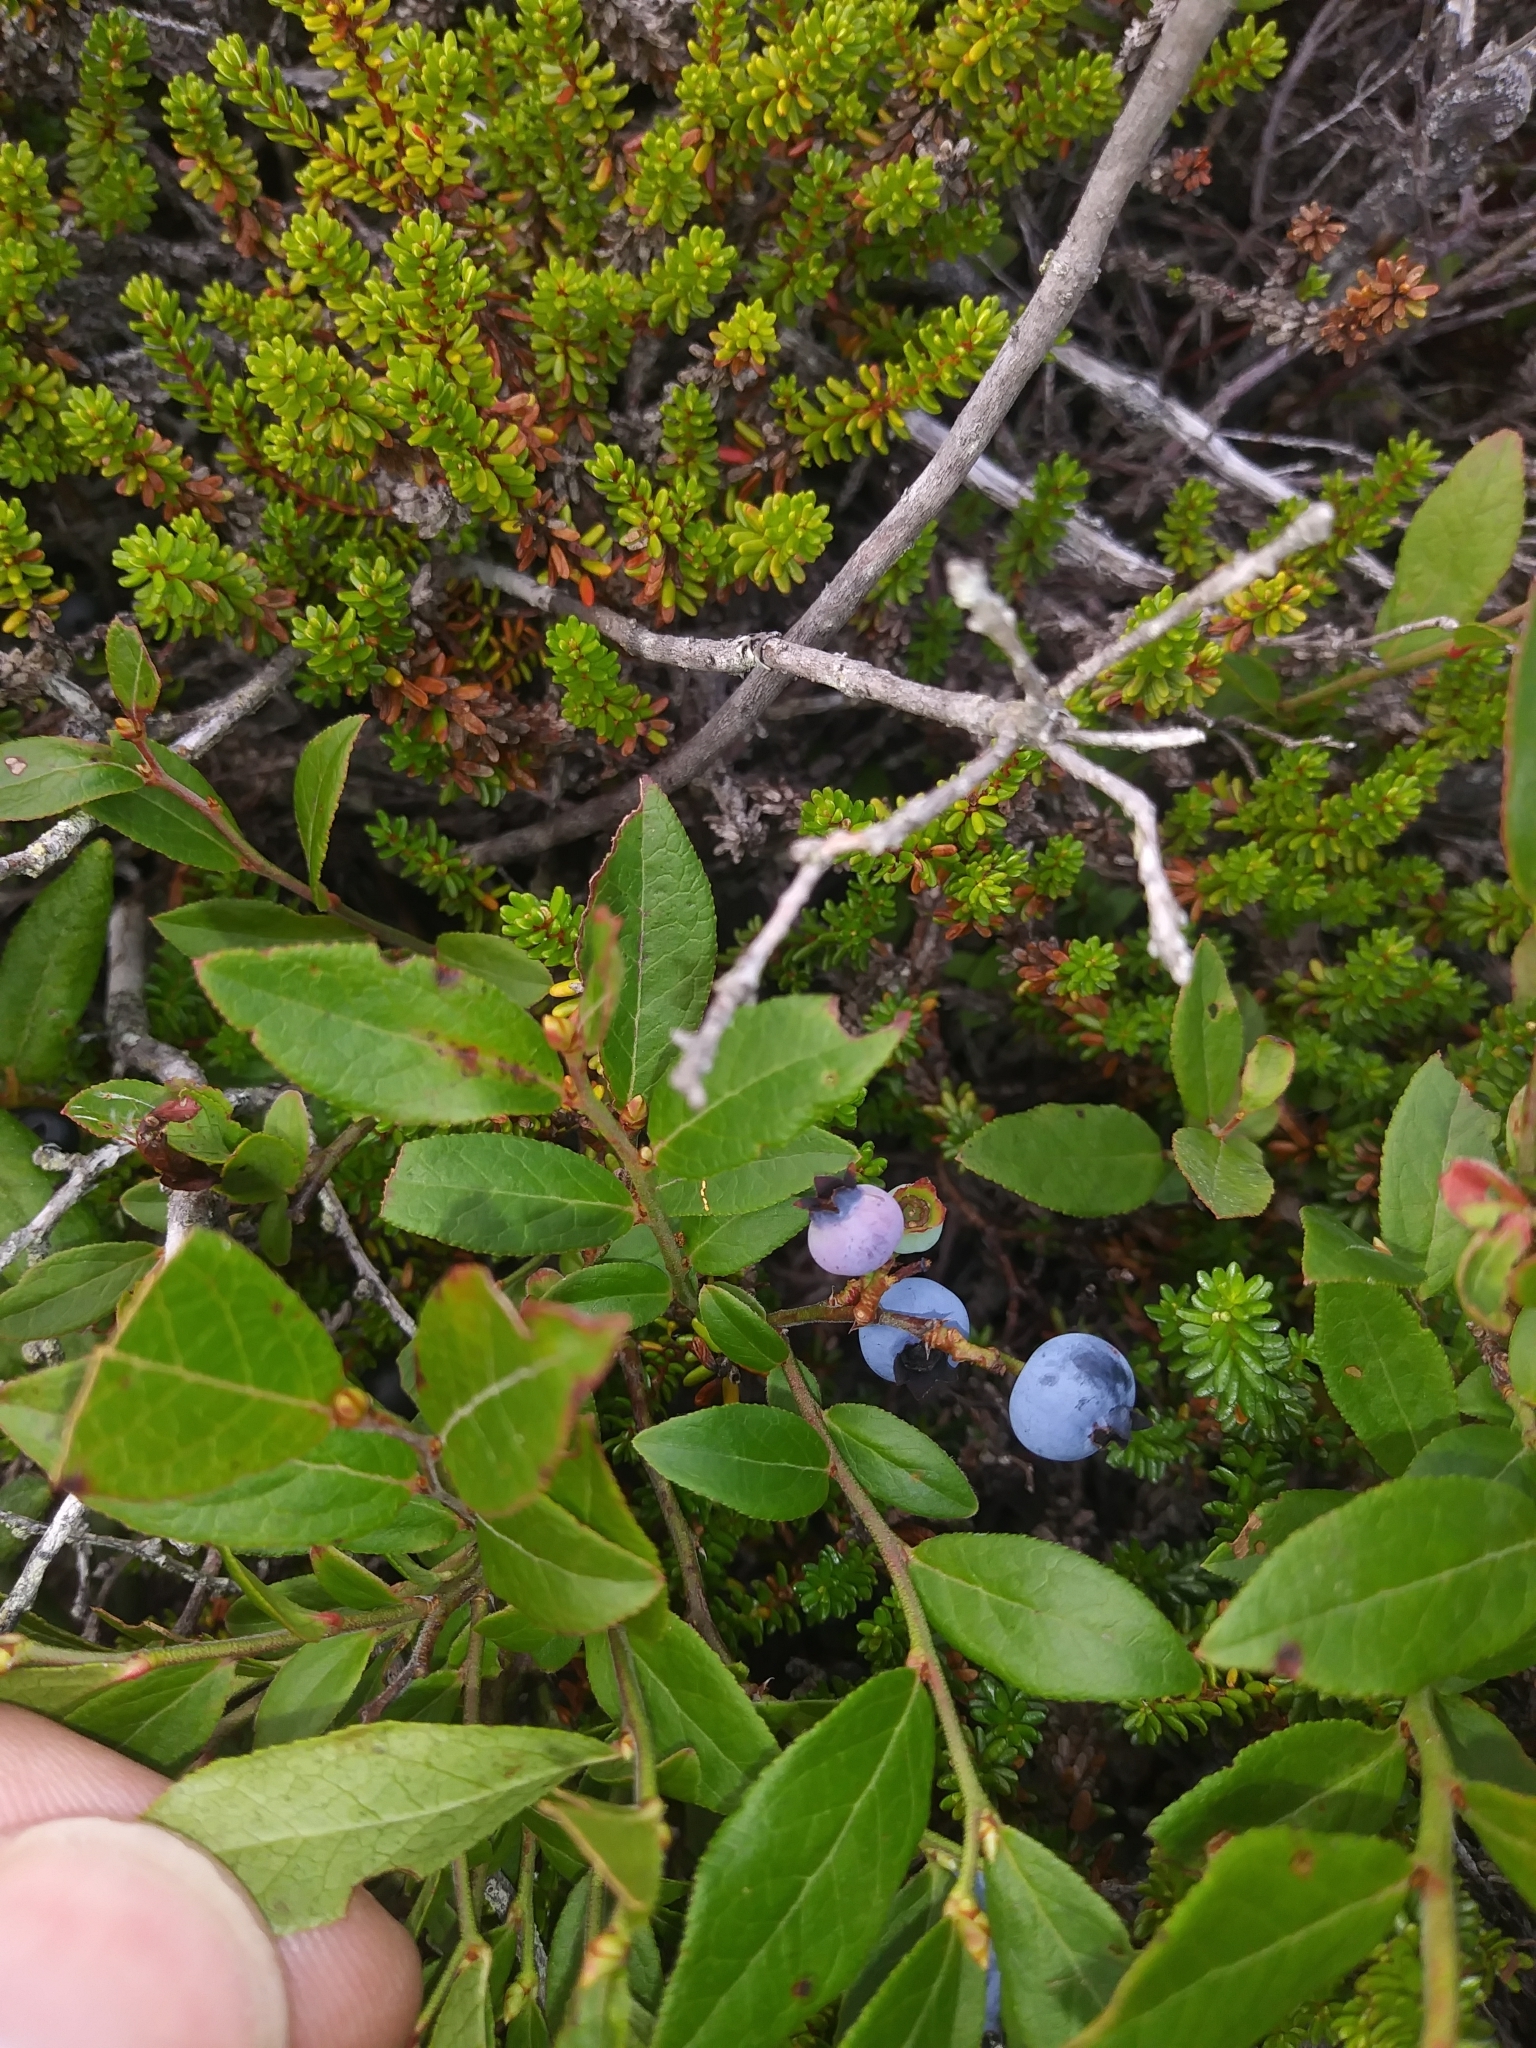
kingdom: Plantae
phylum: Tracheophyta
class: Magnoliopsida
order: Ericales
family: Ericaceae
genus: Vaccinium
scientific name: Vaccinium angustifolium
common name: Early lowbush blueberry
